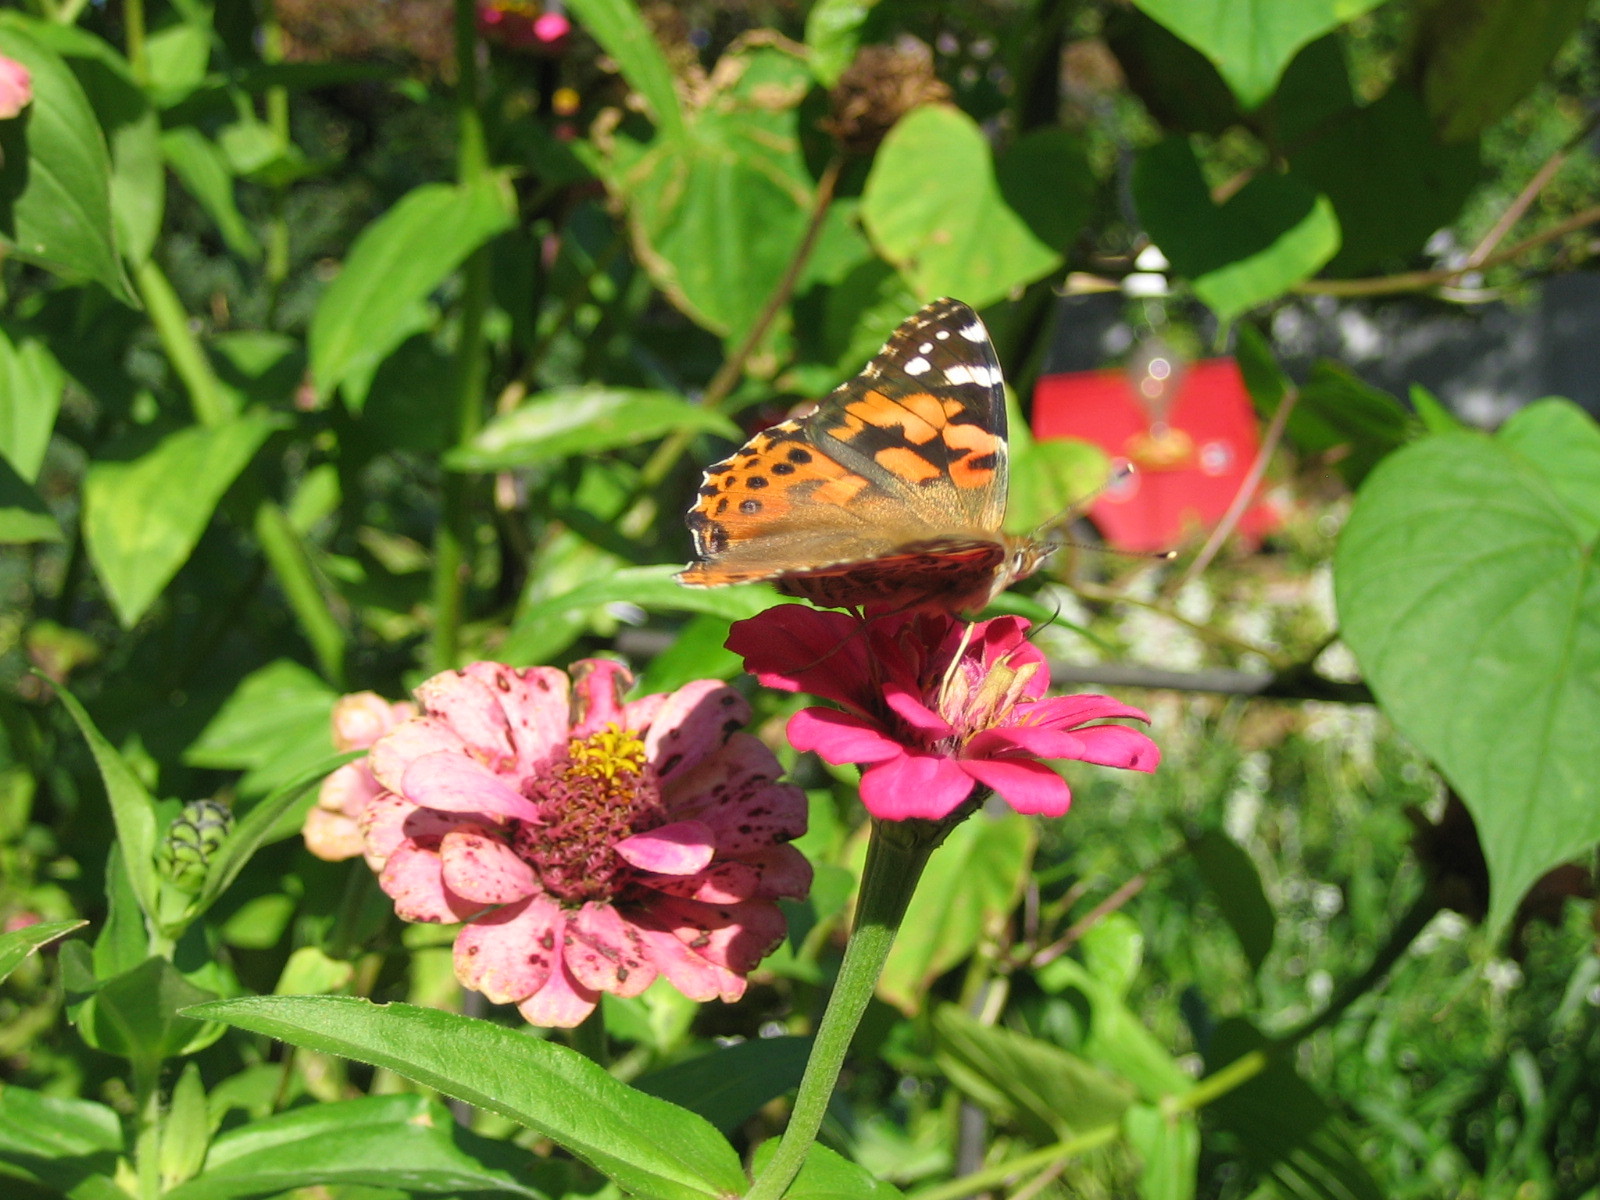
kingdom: Animalia
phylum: Arthropoda
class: Insecta
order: Lepidoptera
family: Nymphalidae
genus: Vanessa
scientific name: Vanessa cardui
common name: Painted lady
